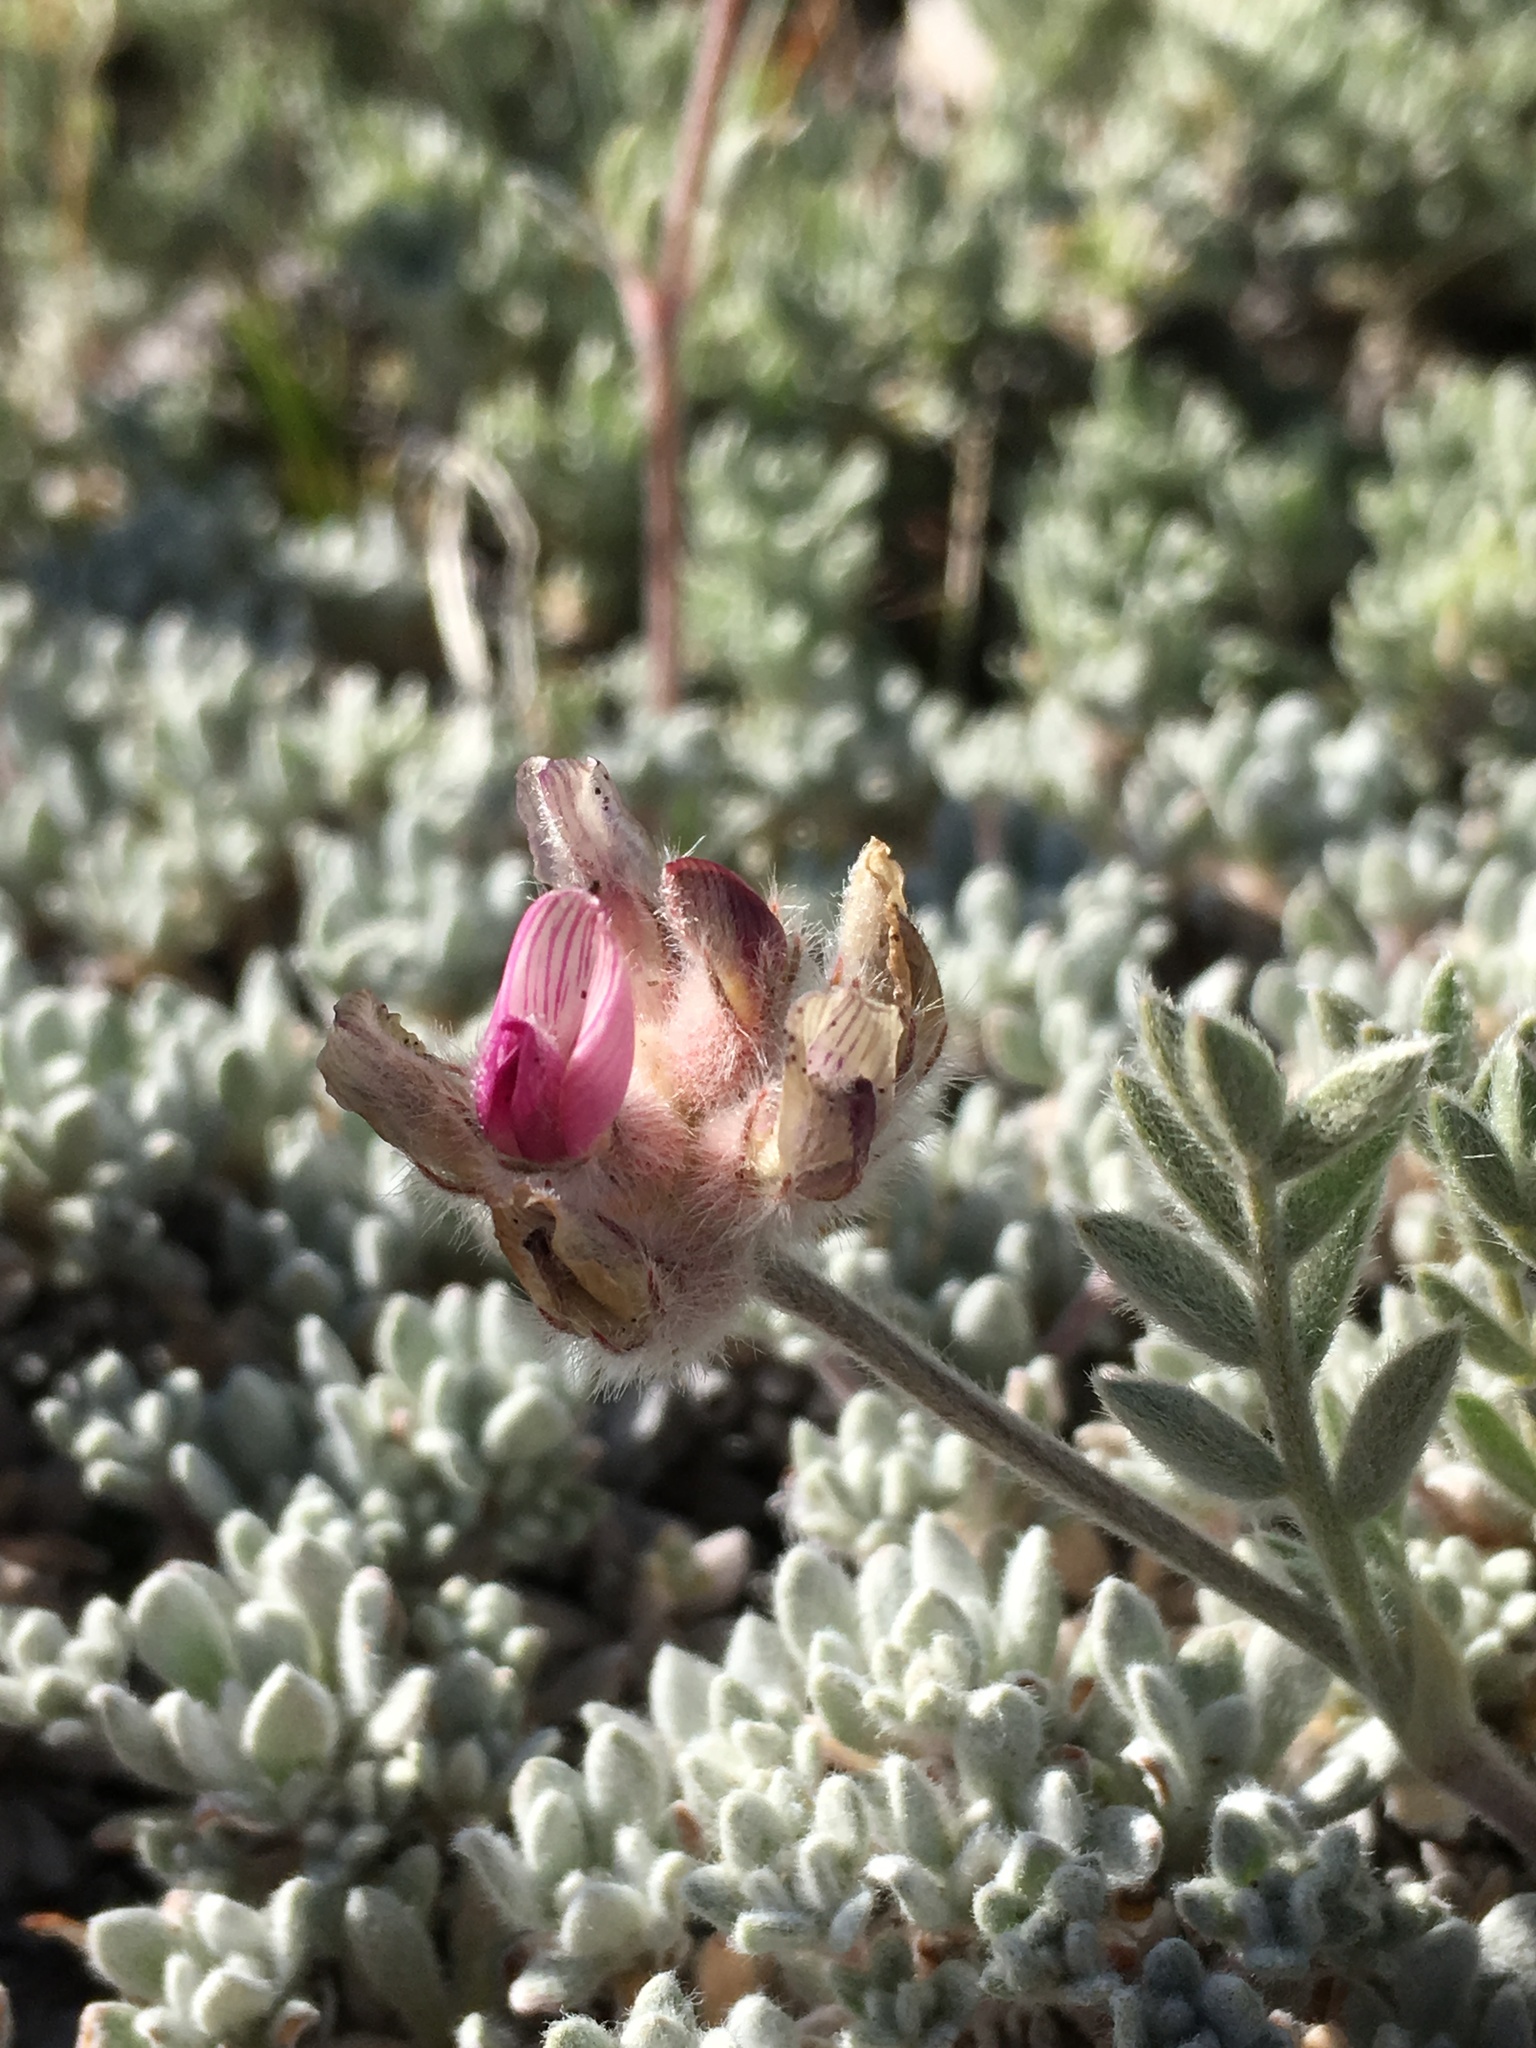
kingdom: Plantae
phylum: Tracheophyta
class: Magnoliopsida
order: Fabales
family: Fabaceae
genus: Astragalus
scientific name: Astragalus austiniae
